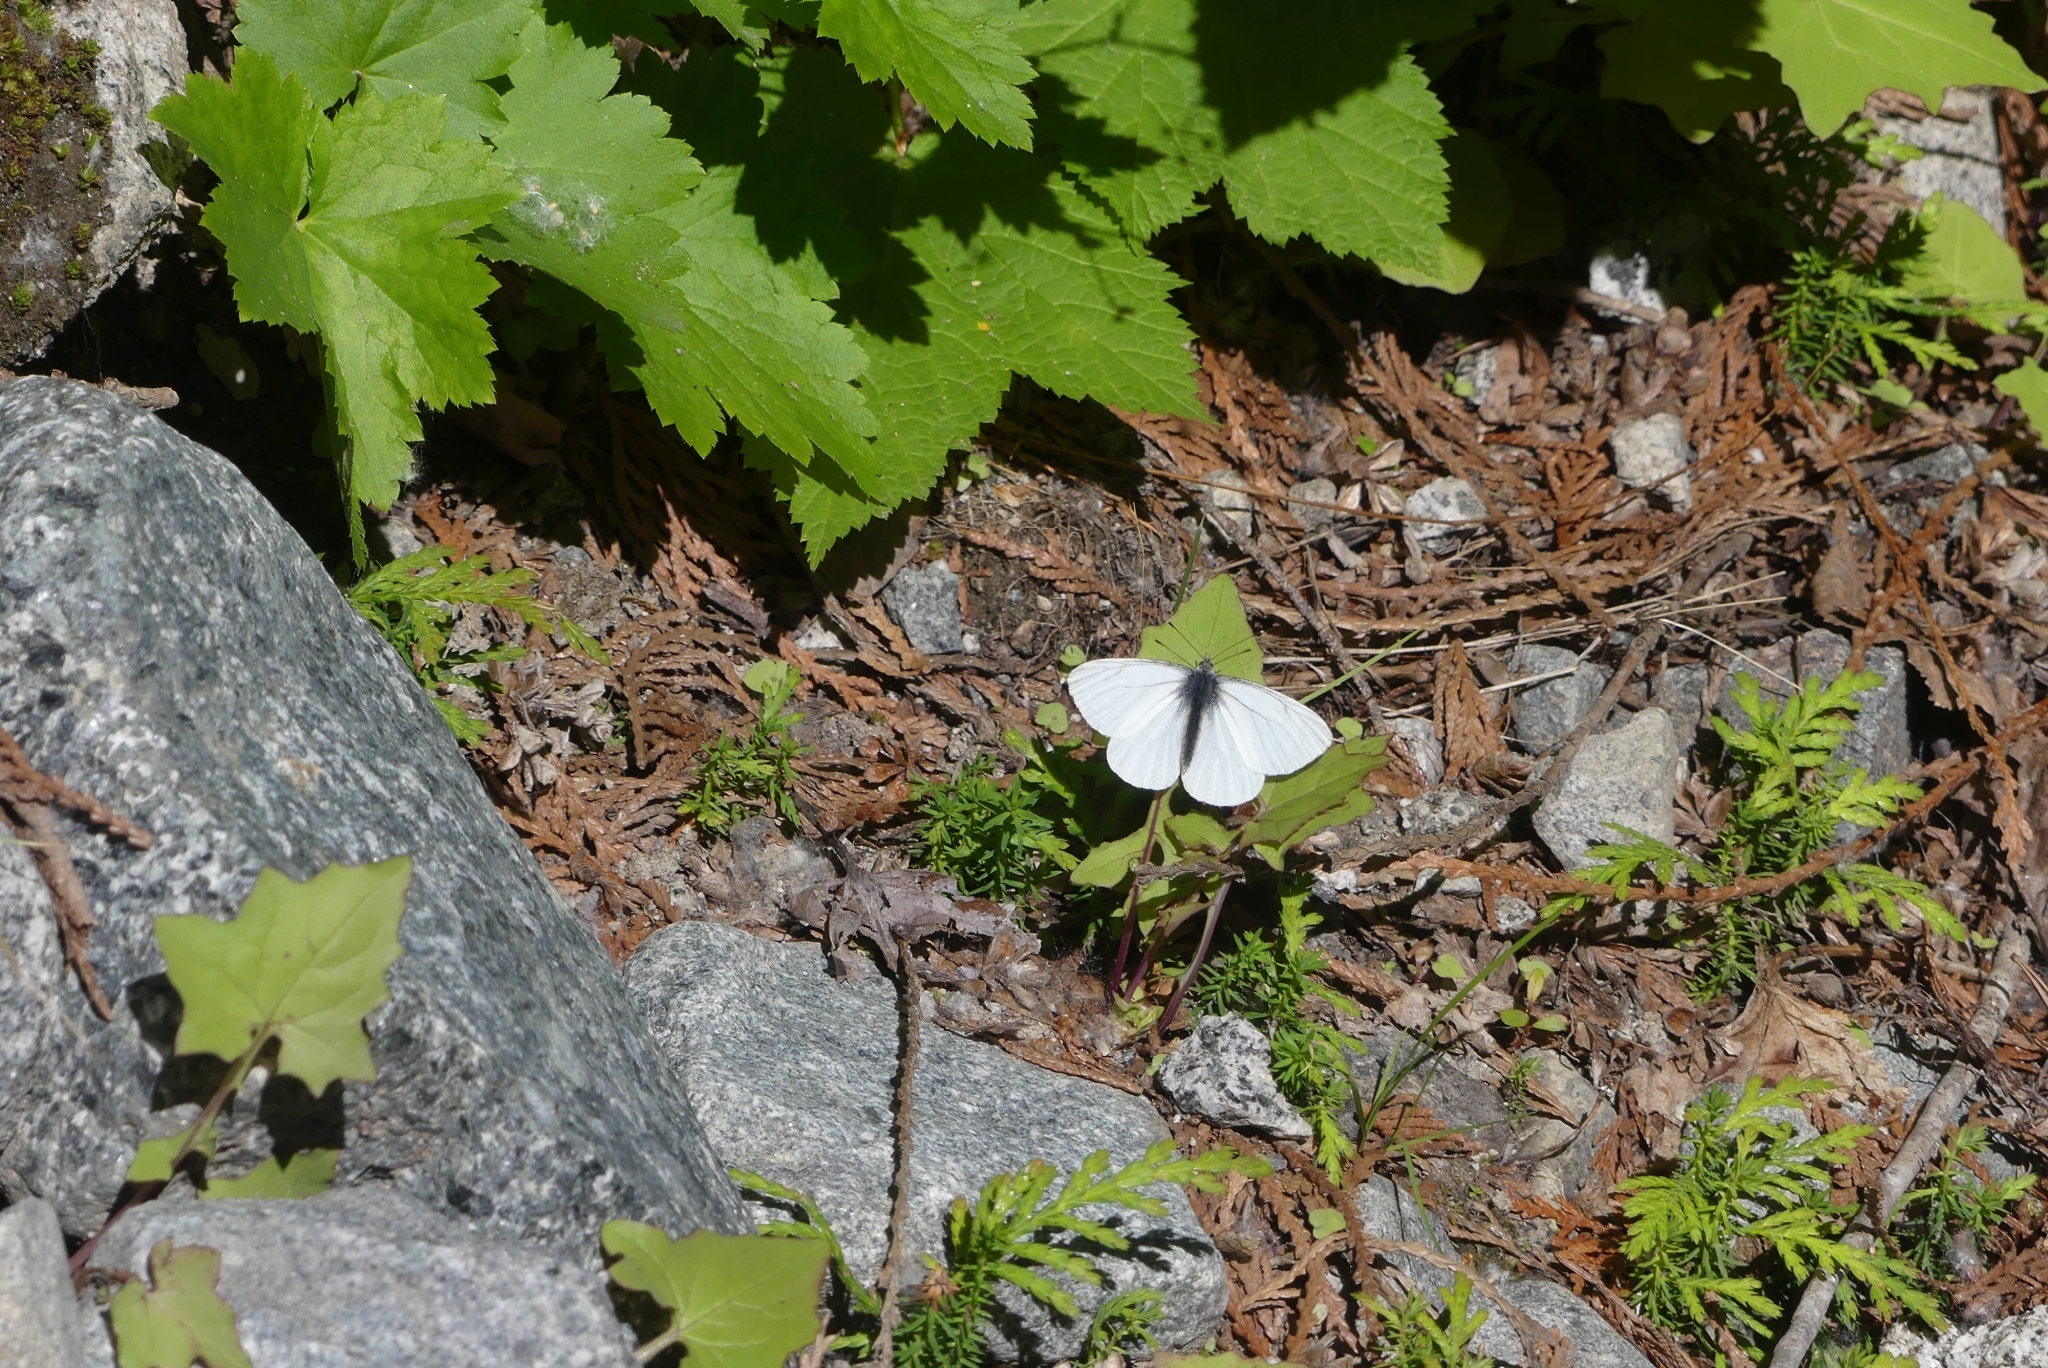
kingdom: Animalia
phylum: Arthropoda
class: Insecta
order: Lepidoptera
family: Pieridae
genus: Pieris
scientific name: Pieris marginalis
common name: Margined white
